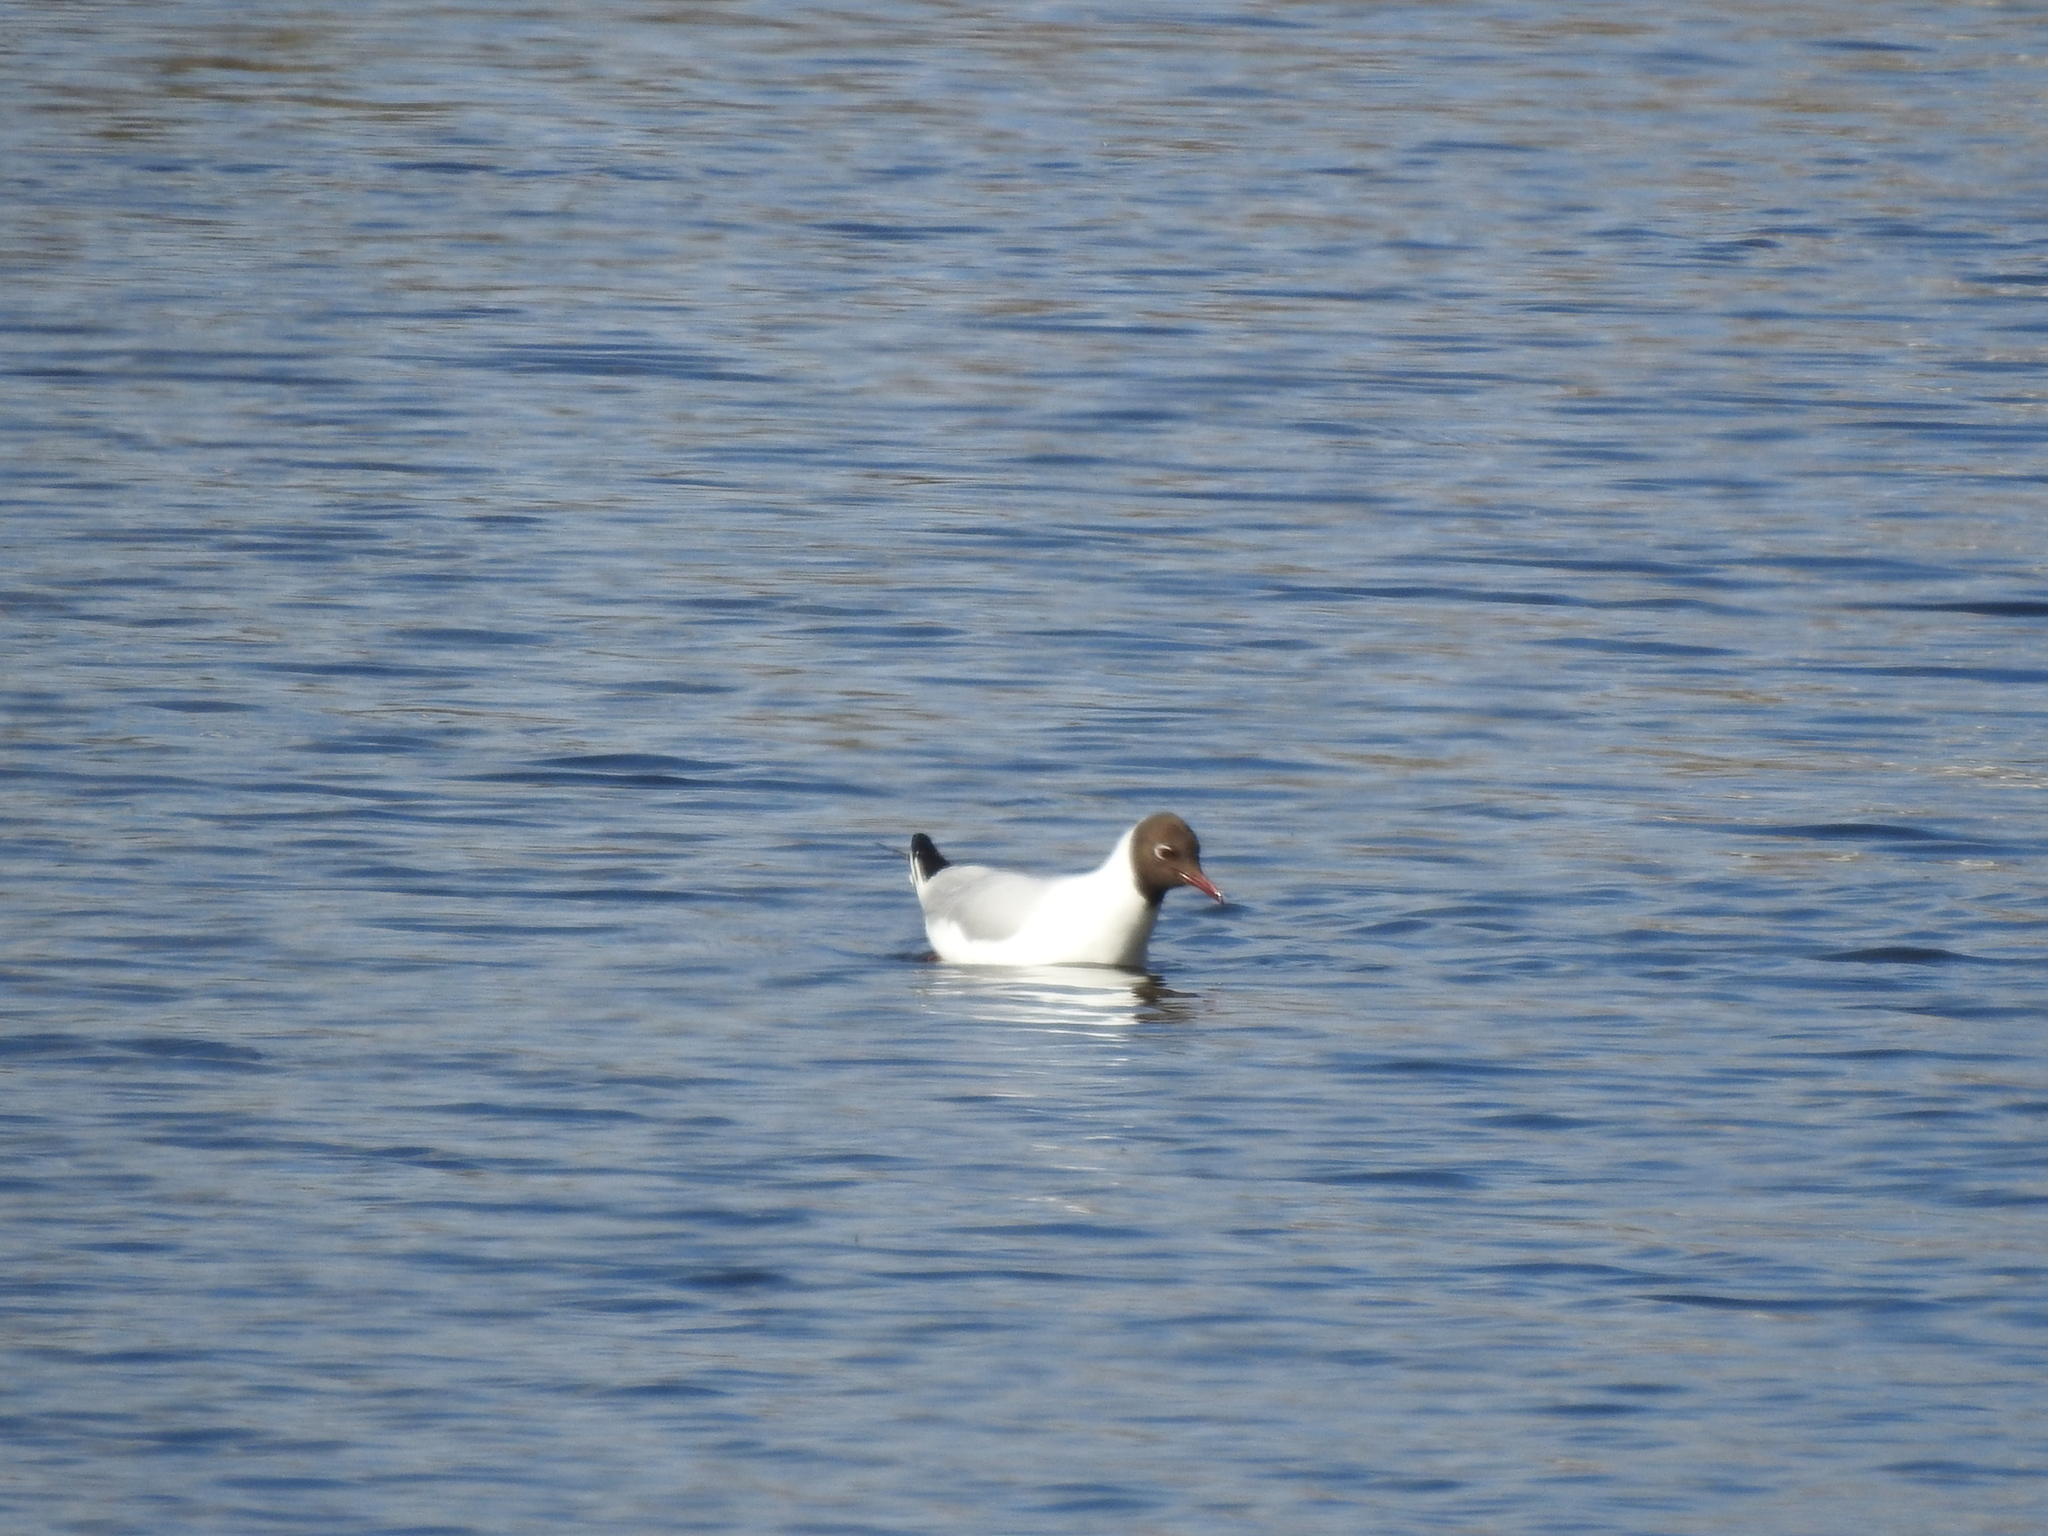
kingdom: Animalia
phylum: Chordata
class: Aves
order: Charadriiformes
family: Laridae
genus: Chroicocephalus
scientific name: Chroicocephalus ridibundus
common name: Black-headed gull
